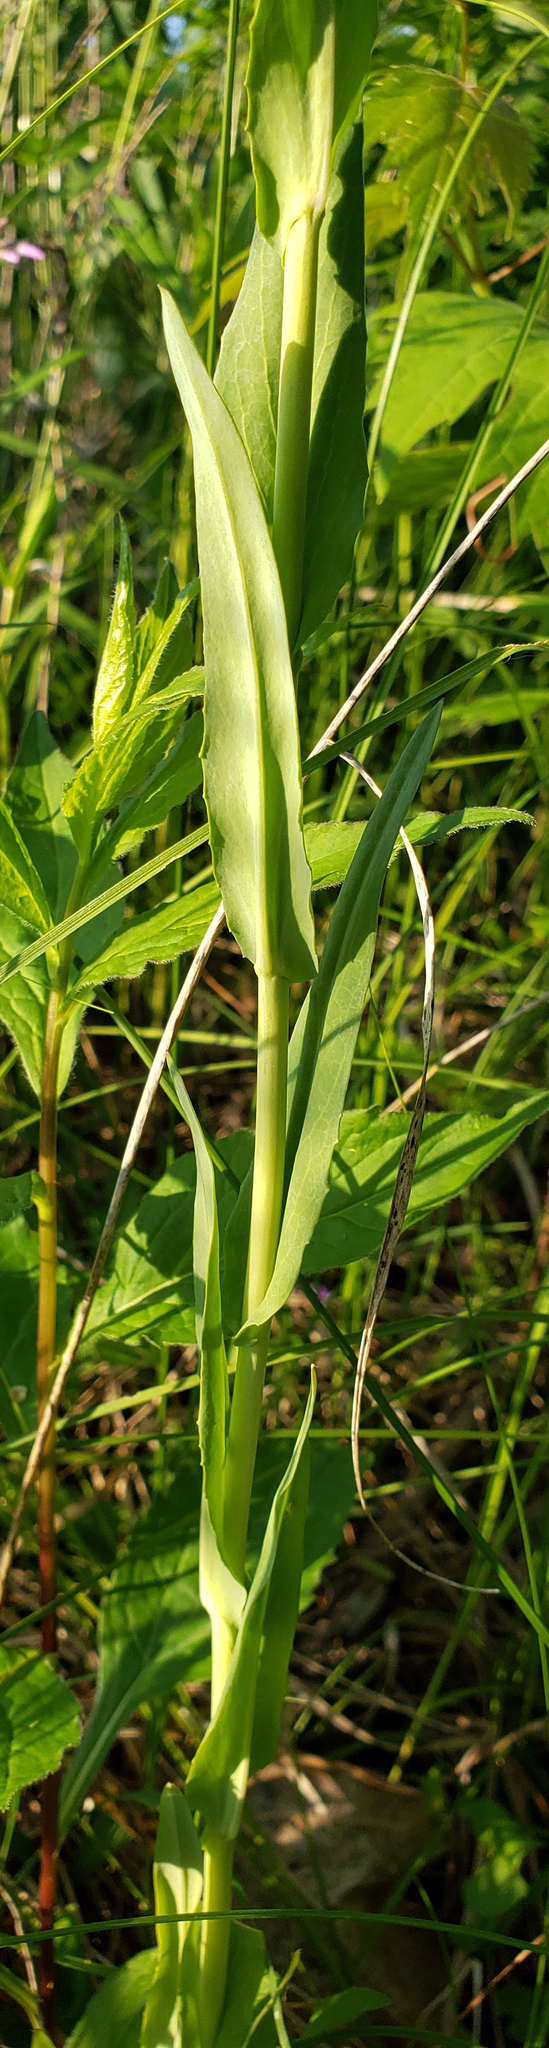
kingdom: Plantae
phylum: Tracheophyta
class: Magnoliopsida
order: Brassicales
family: Brassicaceae
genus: Turritis
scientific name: Turritis glabra
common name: Tower rockcress
